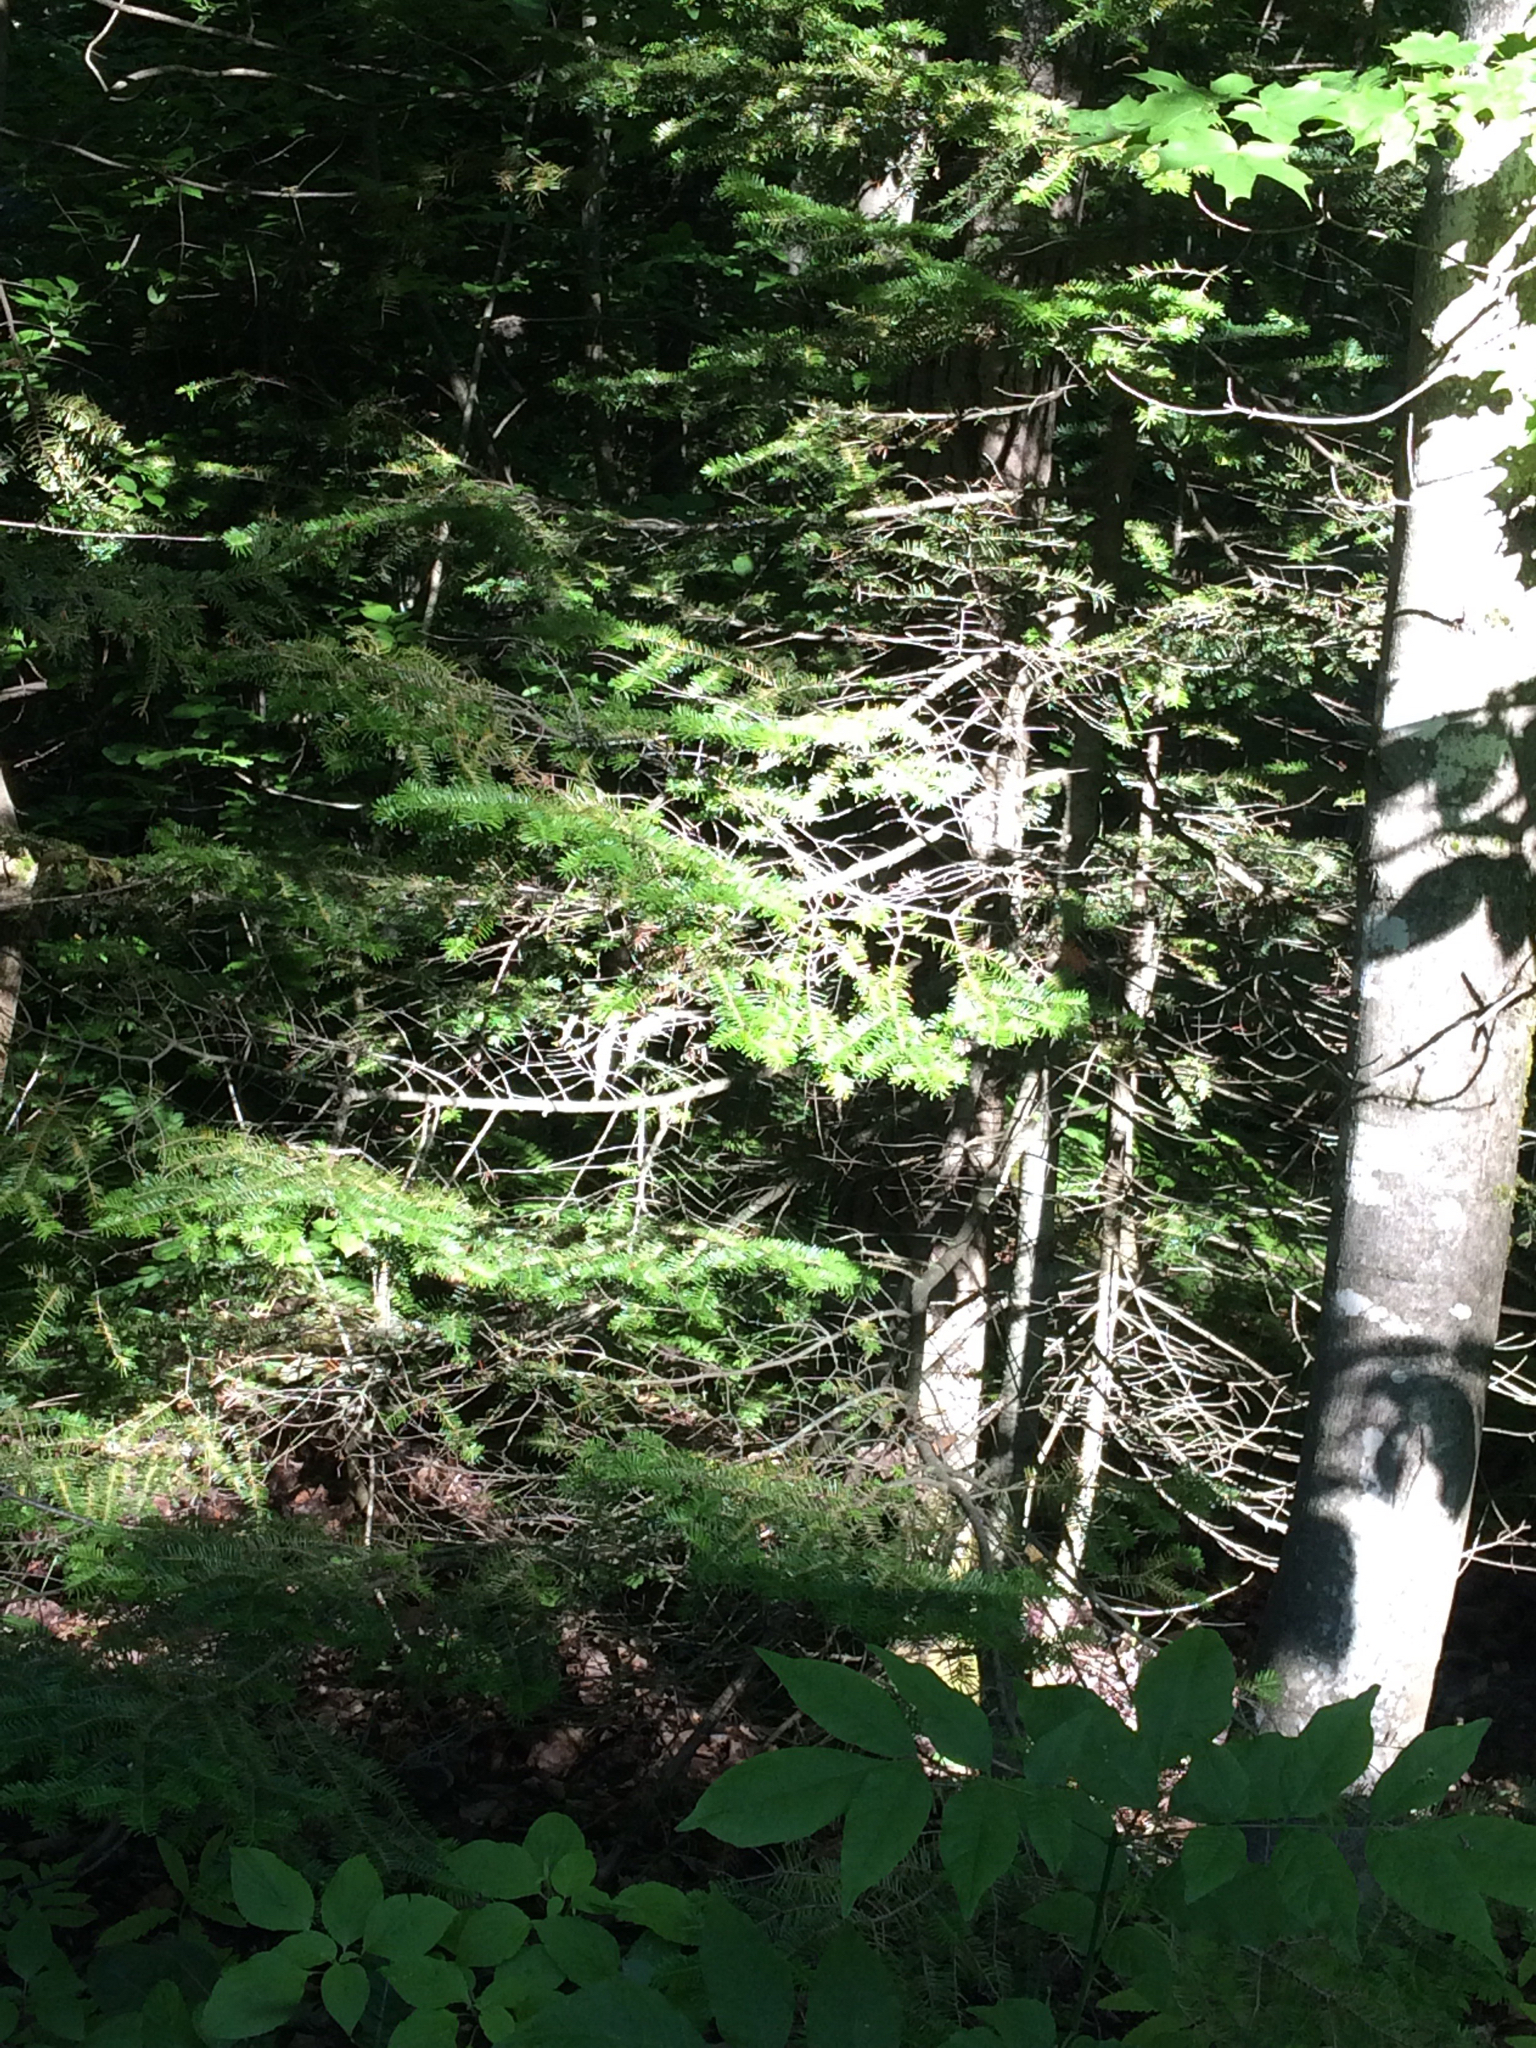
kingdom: Plantae
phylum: Tracheophyta
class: Pinopsida
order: Pinales
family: Pinaceae
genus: Abies
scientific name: Abies balsamea
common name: Balsam fir
